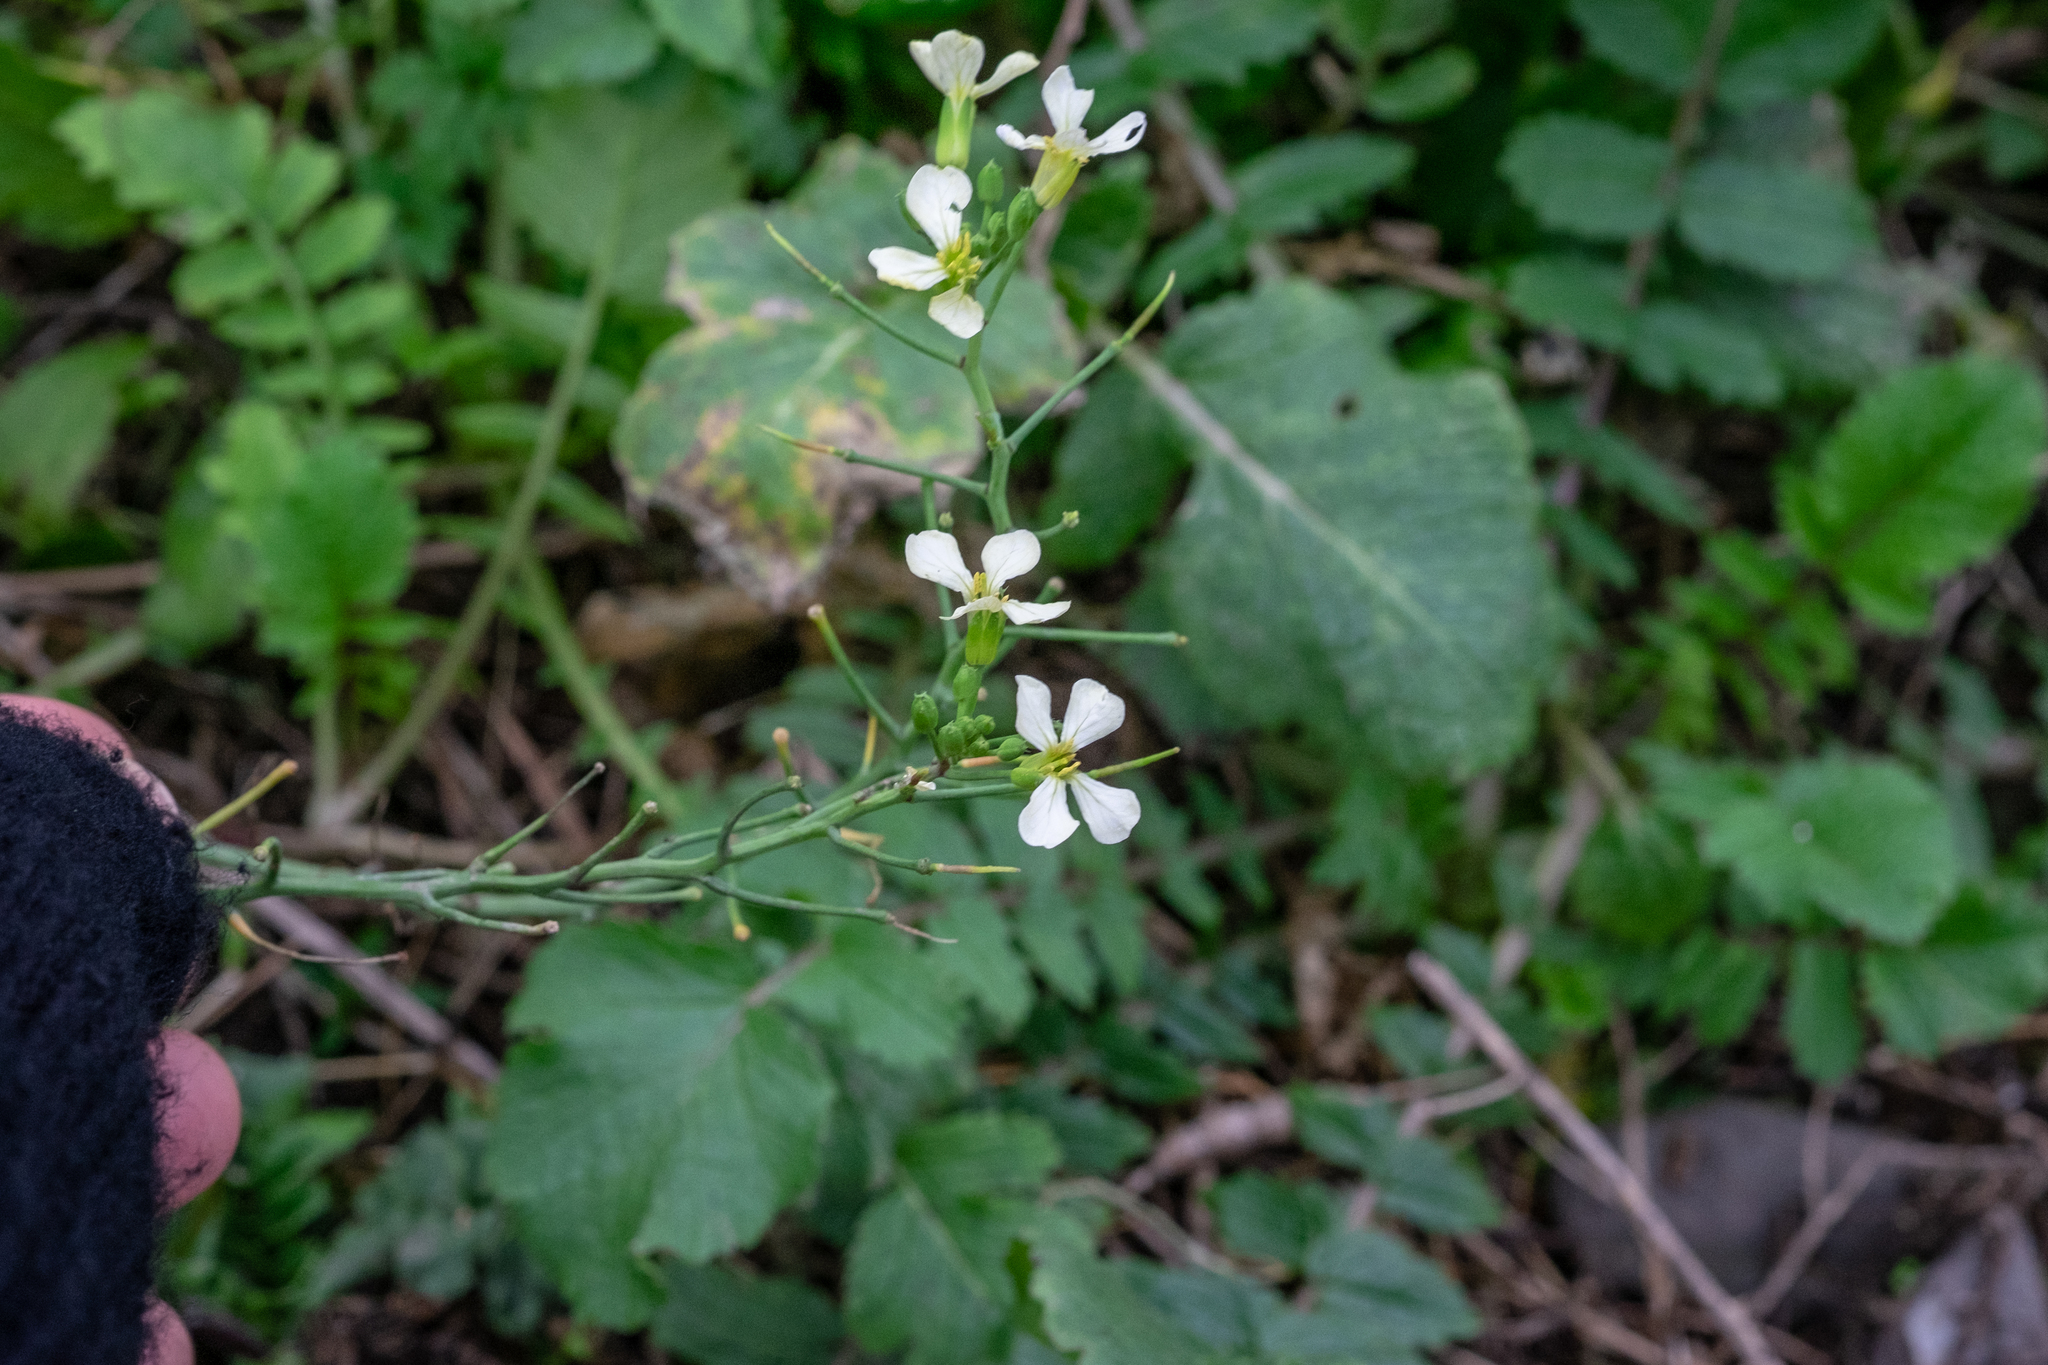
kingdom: Plantae
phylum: Tracheophyta
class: Magnoliopsida
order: Brassicales
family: Brassicaceae
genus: Raphanus
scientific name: Raphanus raphanistrum
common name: Wild radish
